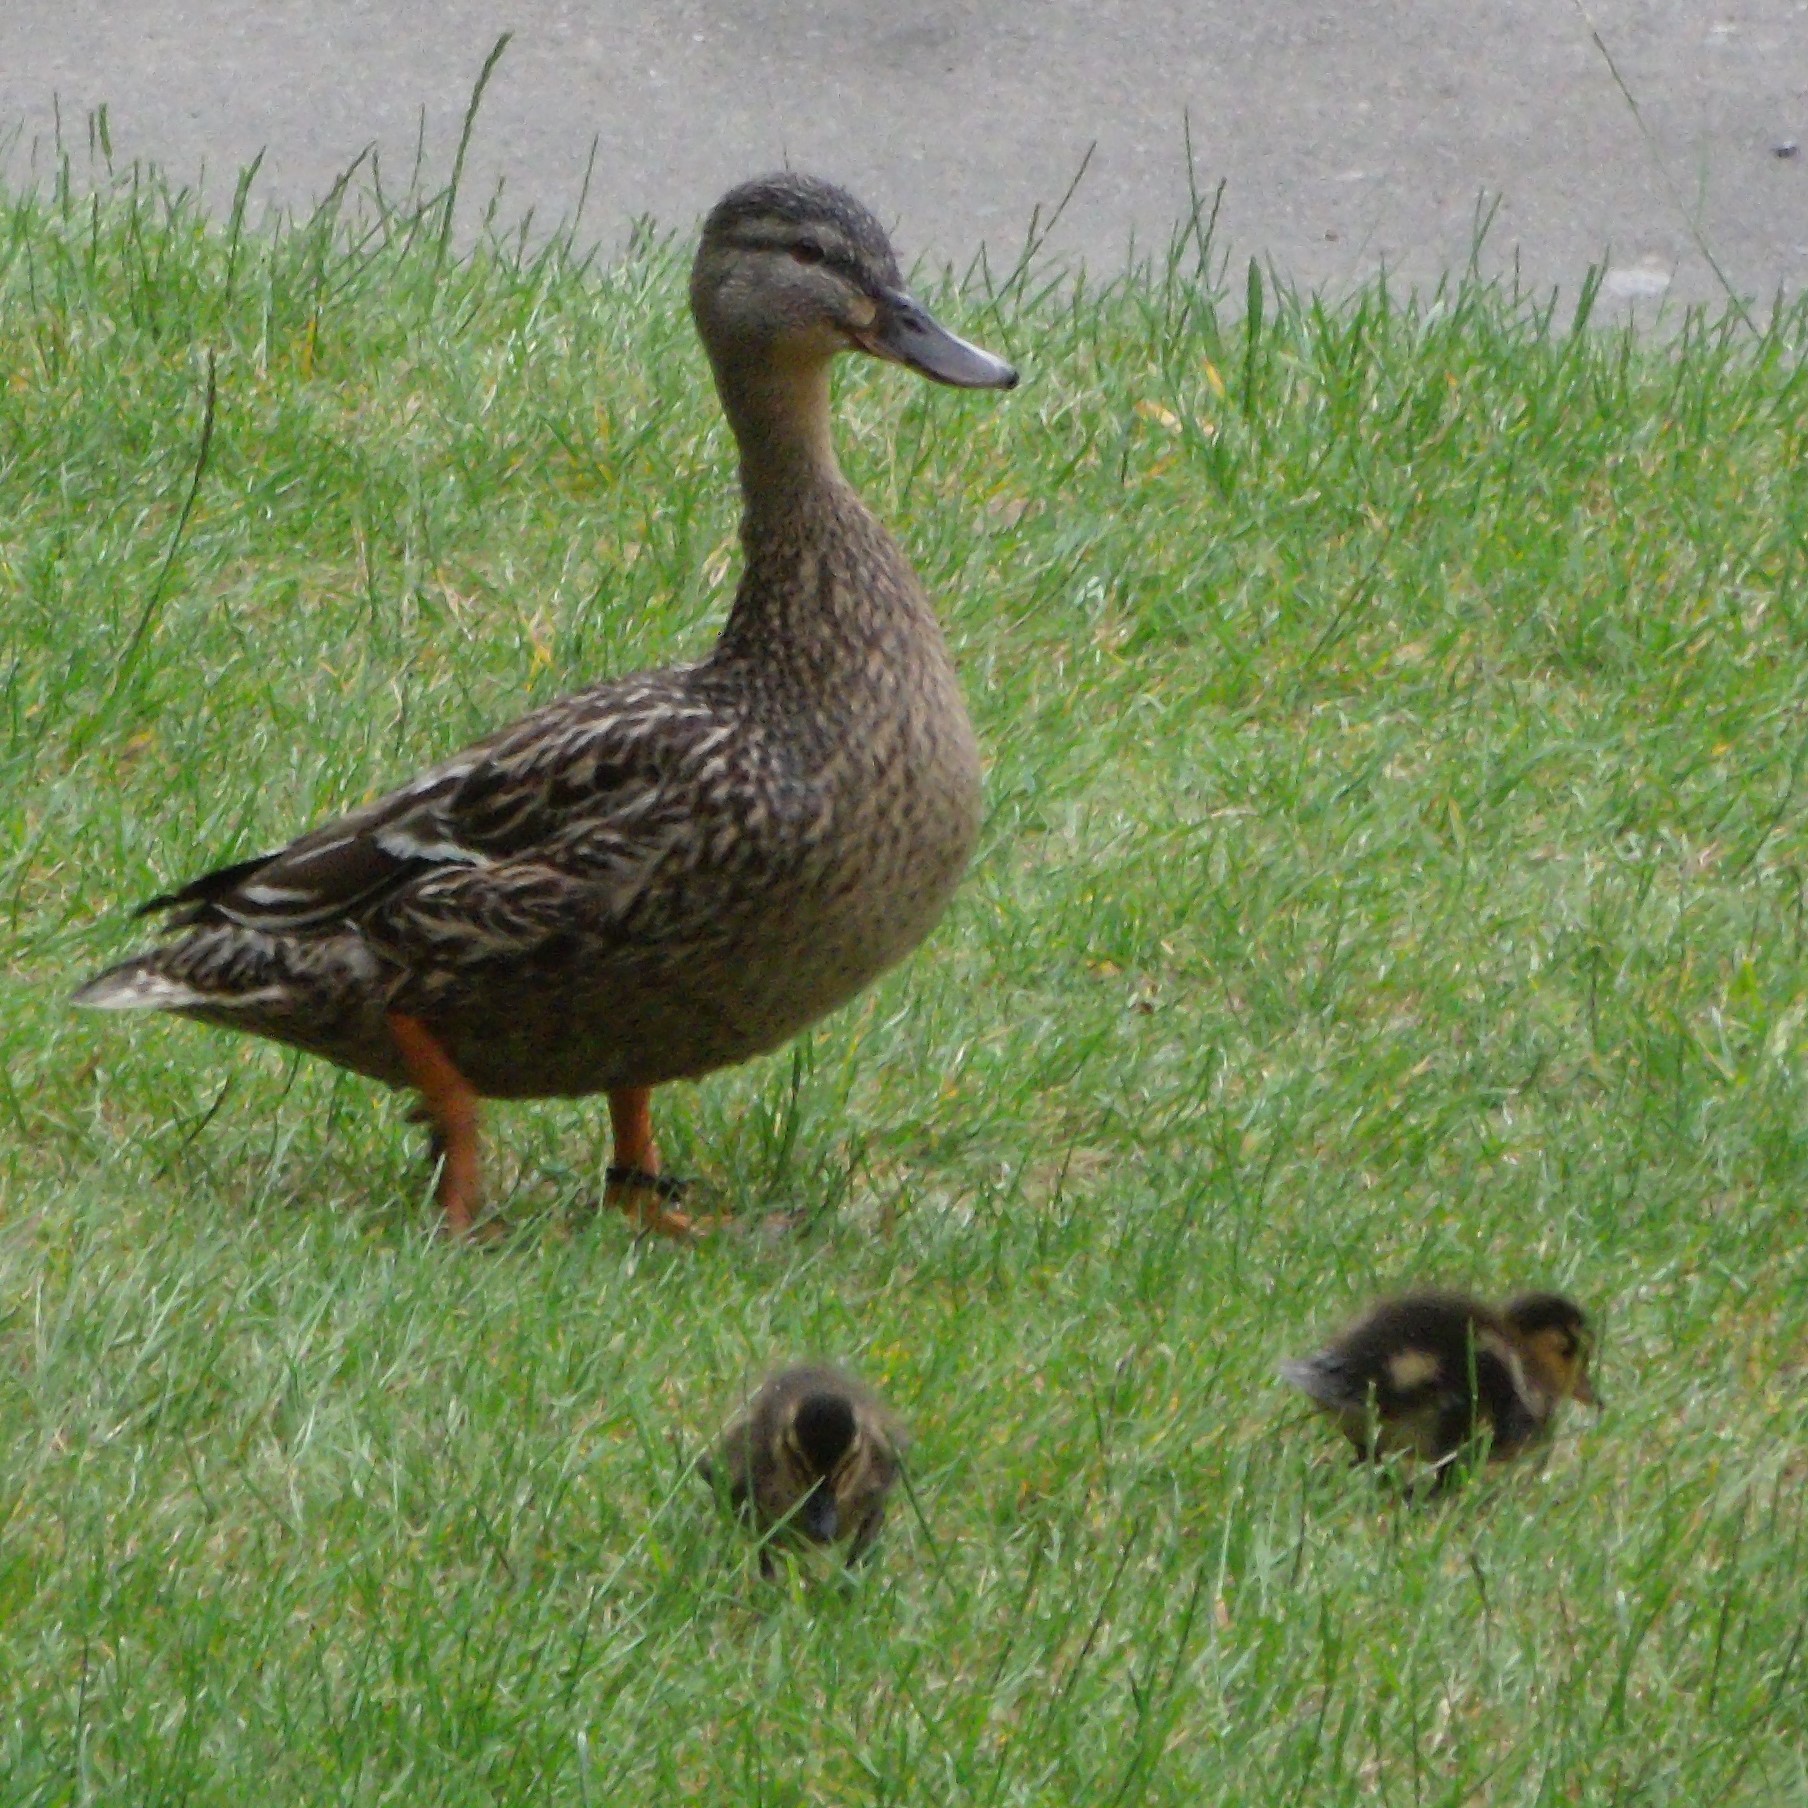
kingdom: Animalia
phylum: Chordata
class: Aves
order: Anseriformes
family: Anatidae
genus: Anas
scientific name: Anas platyrhynchos
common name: Mallard
